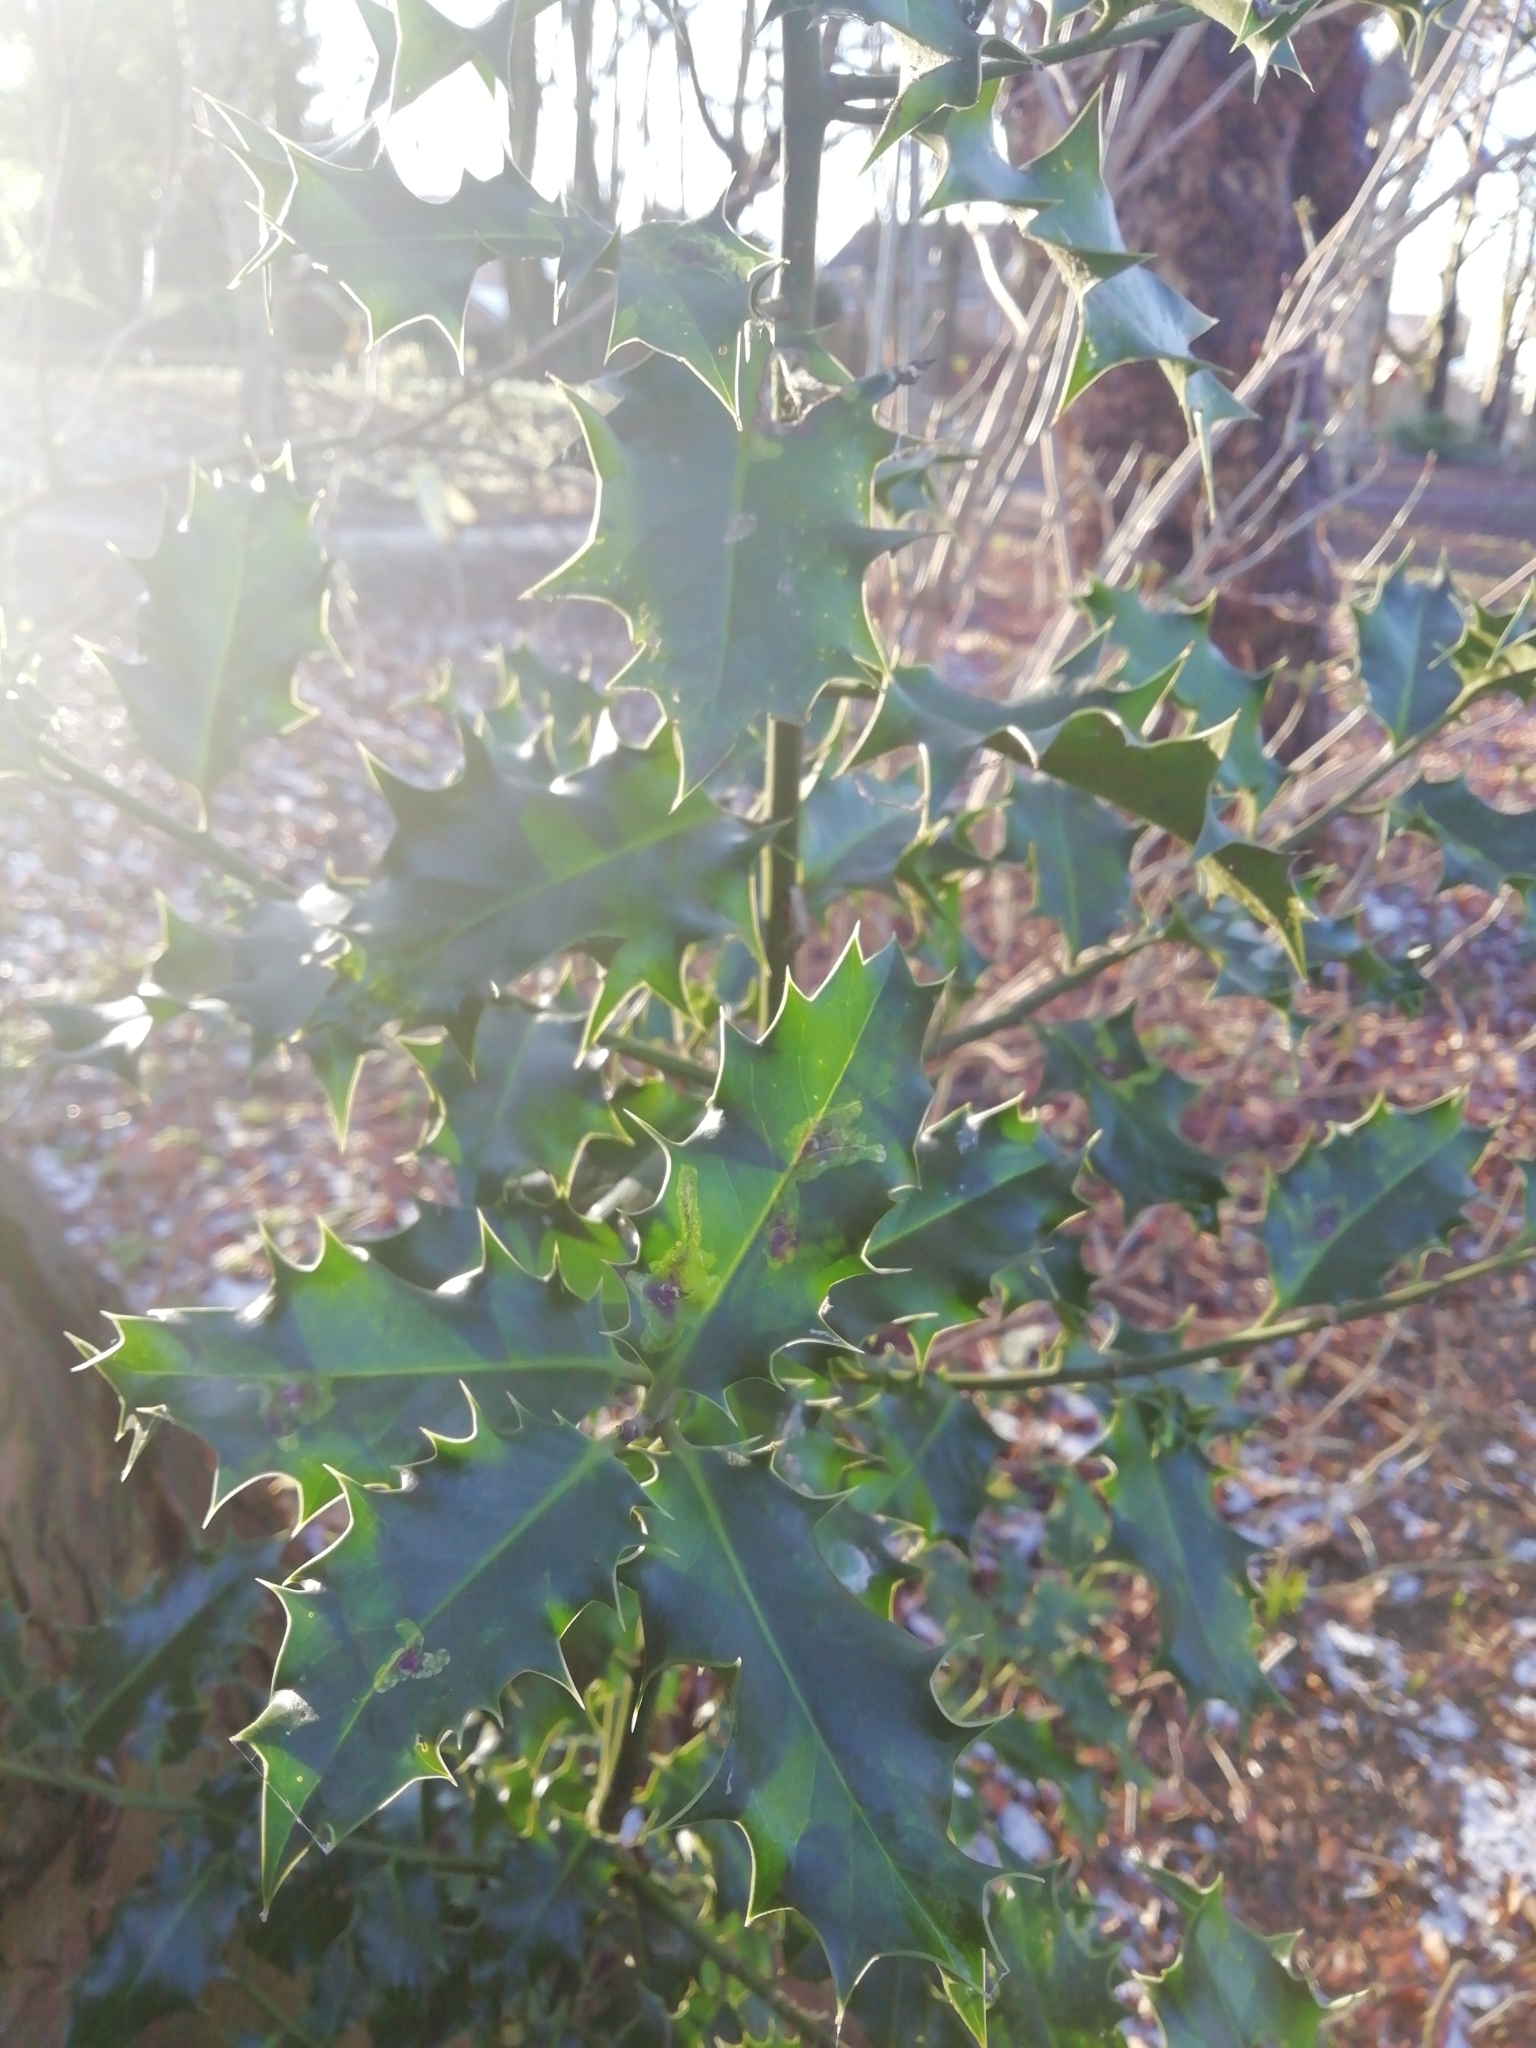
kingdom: Plantae
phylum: Tracheophyta
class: Magnoliopsida
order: Aquifoliales
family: Aquifoliaceae
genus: Ilex
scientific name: Ilex aquifolium
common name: English holly
